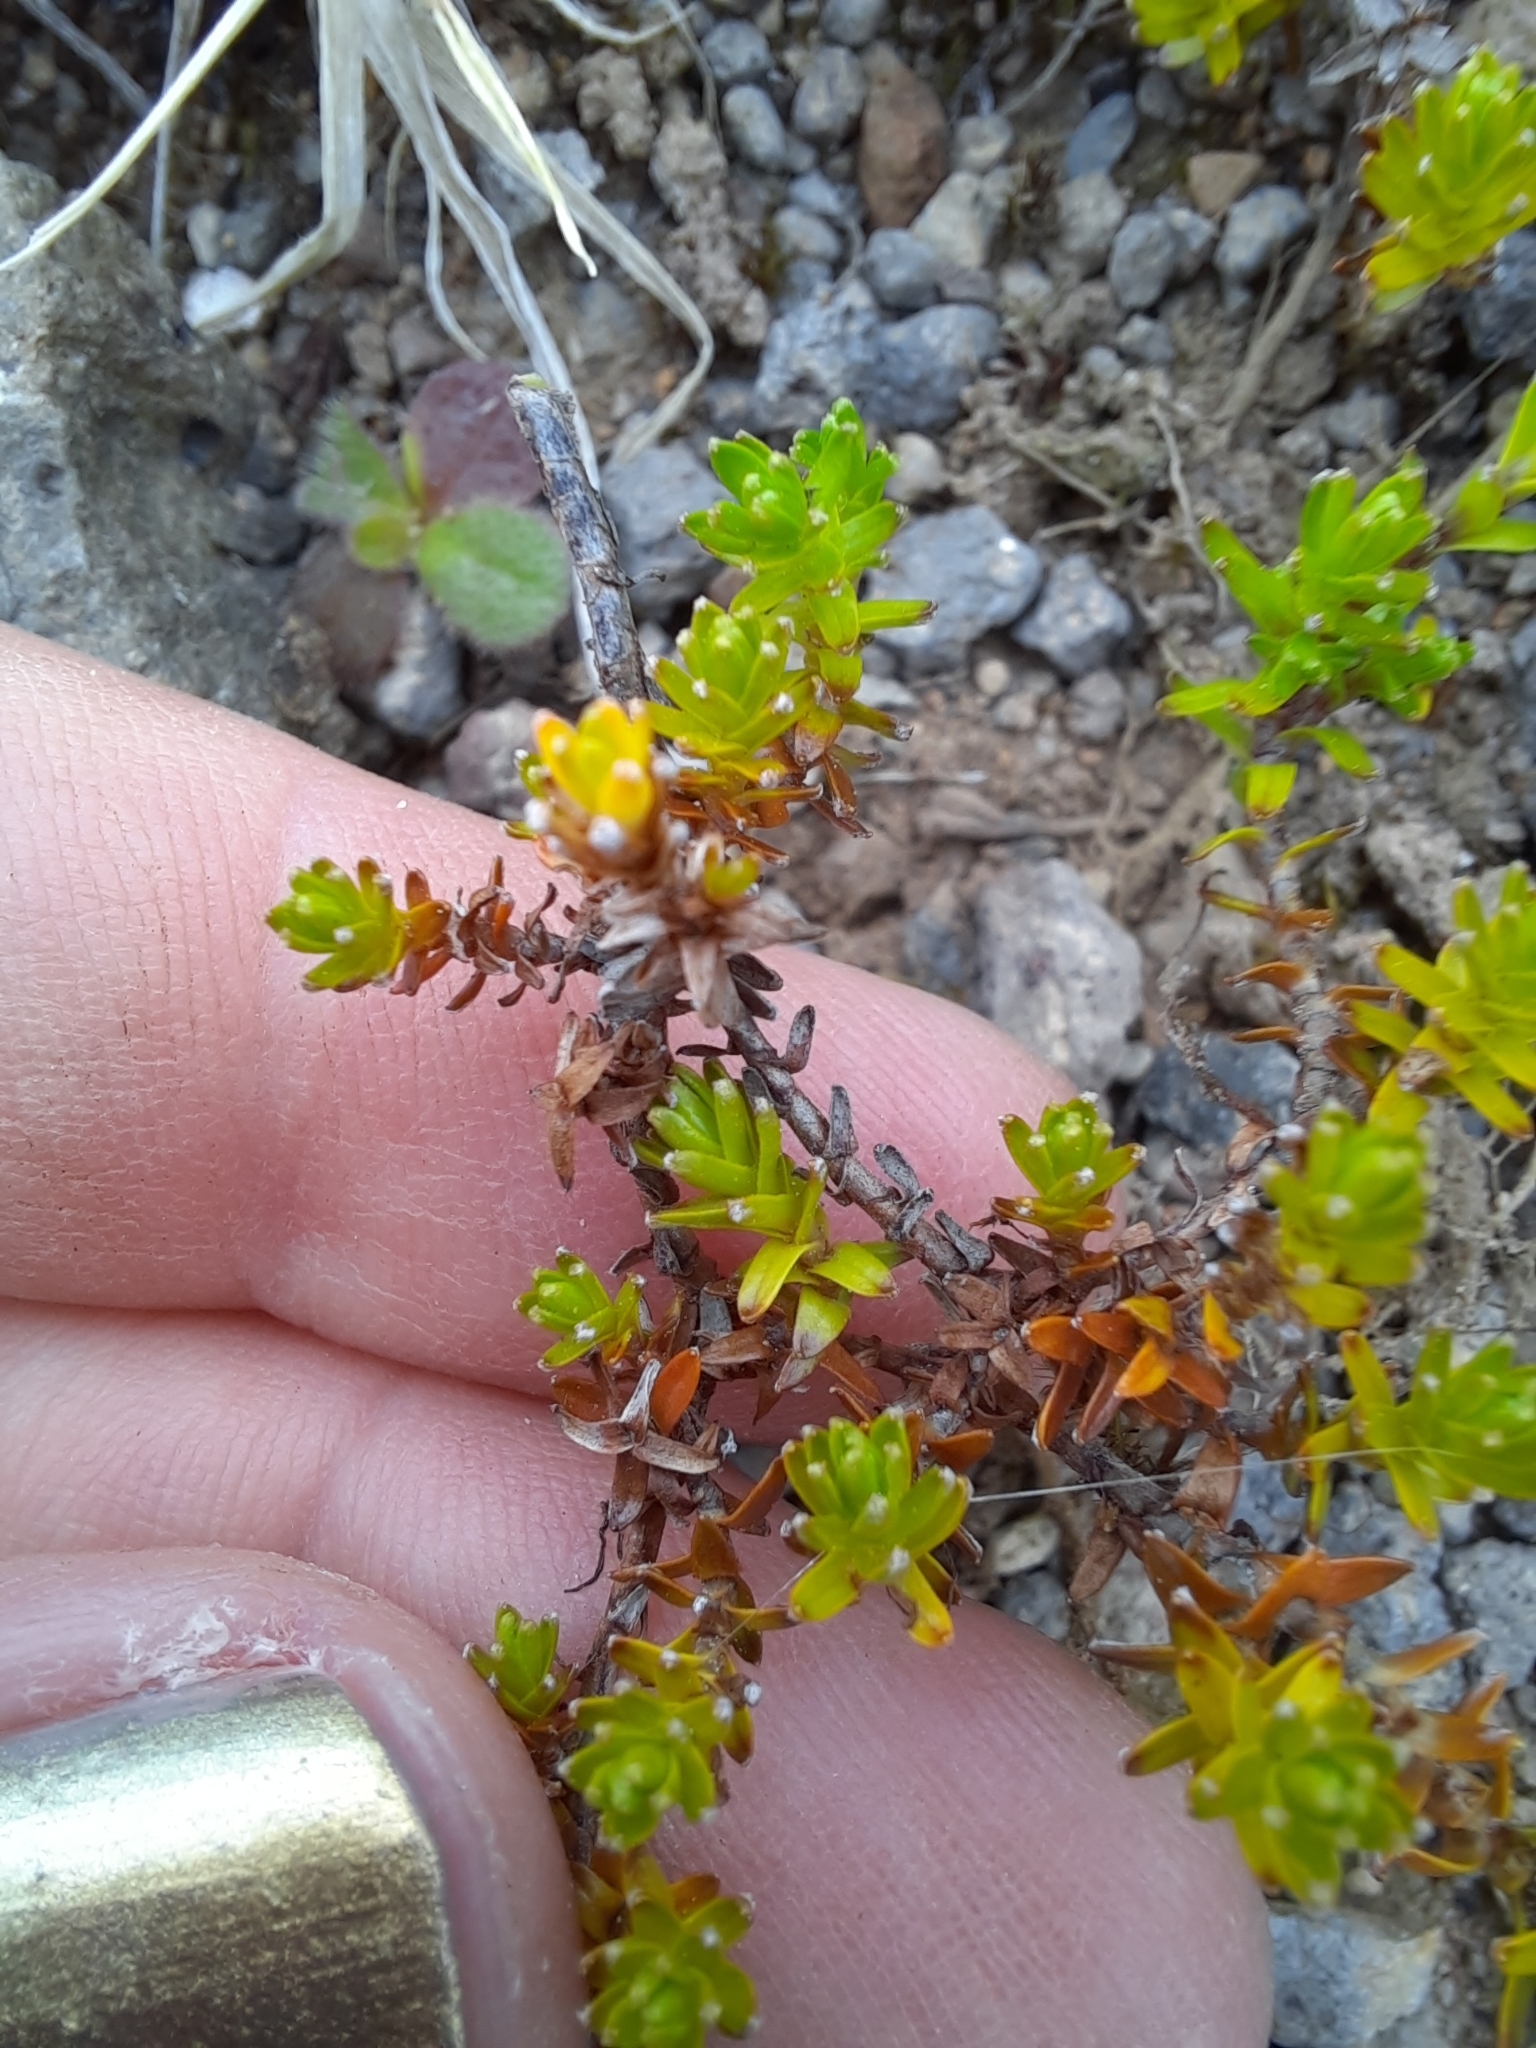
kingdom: Plantae
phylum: Tracheophyta
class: Magnoliopsida
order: Asterales
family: Asteraceae
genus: Raoulia
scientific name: Raoulia glabra
